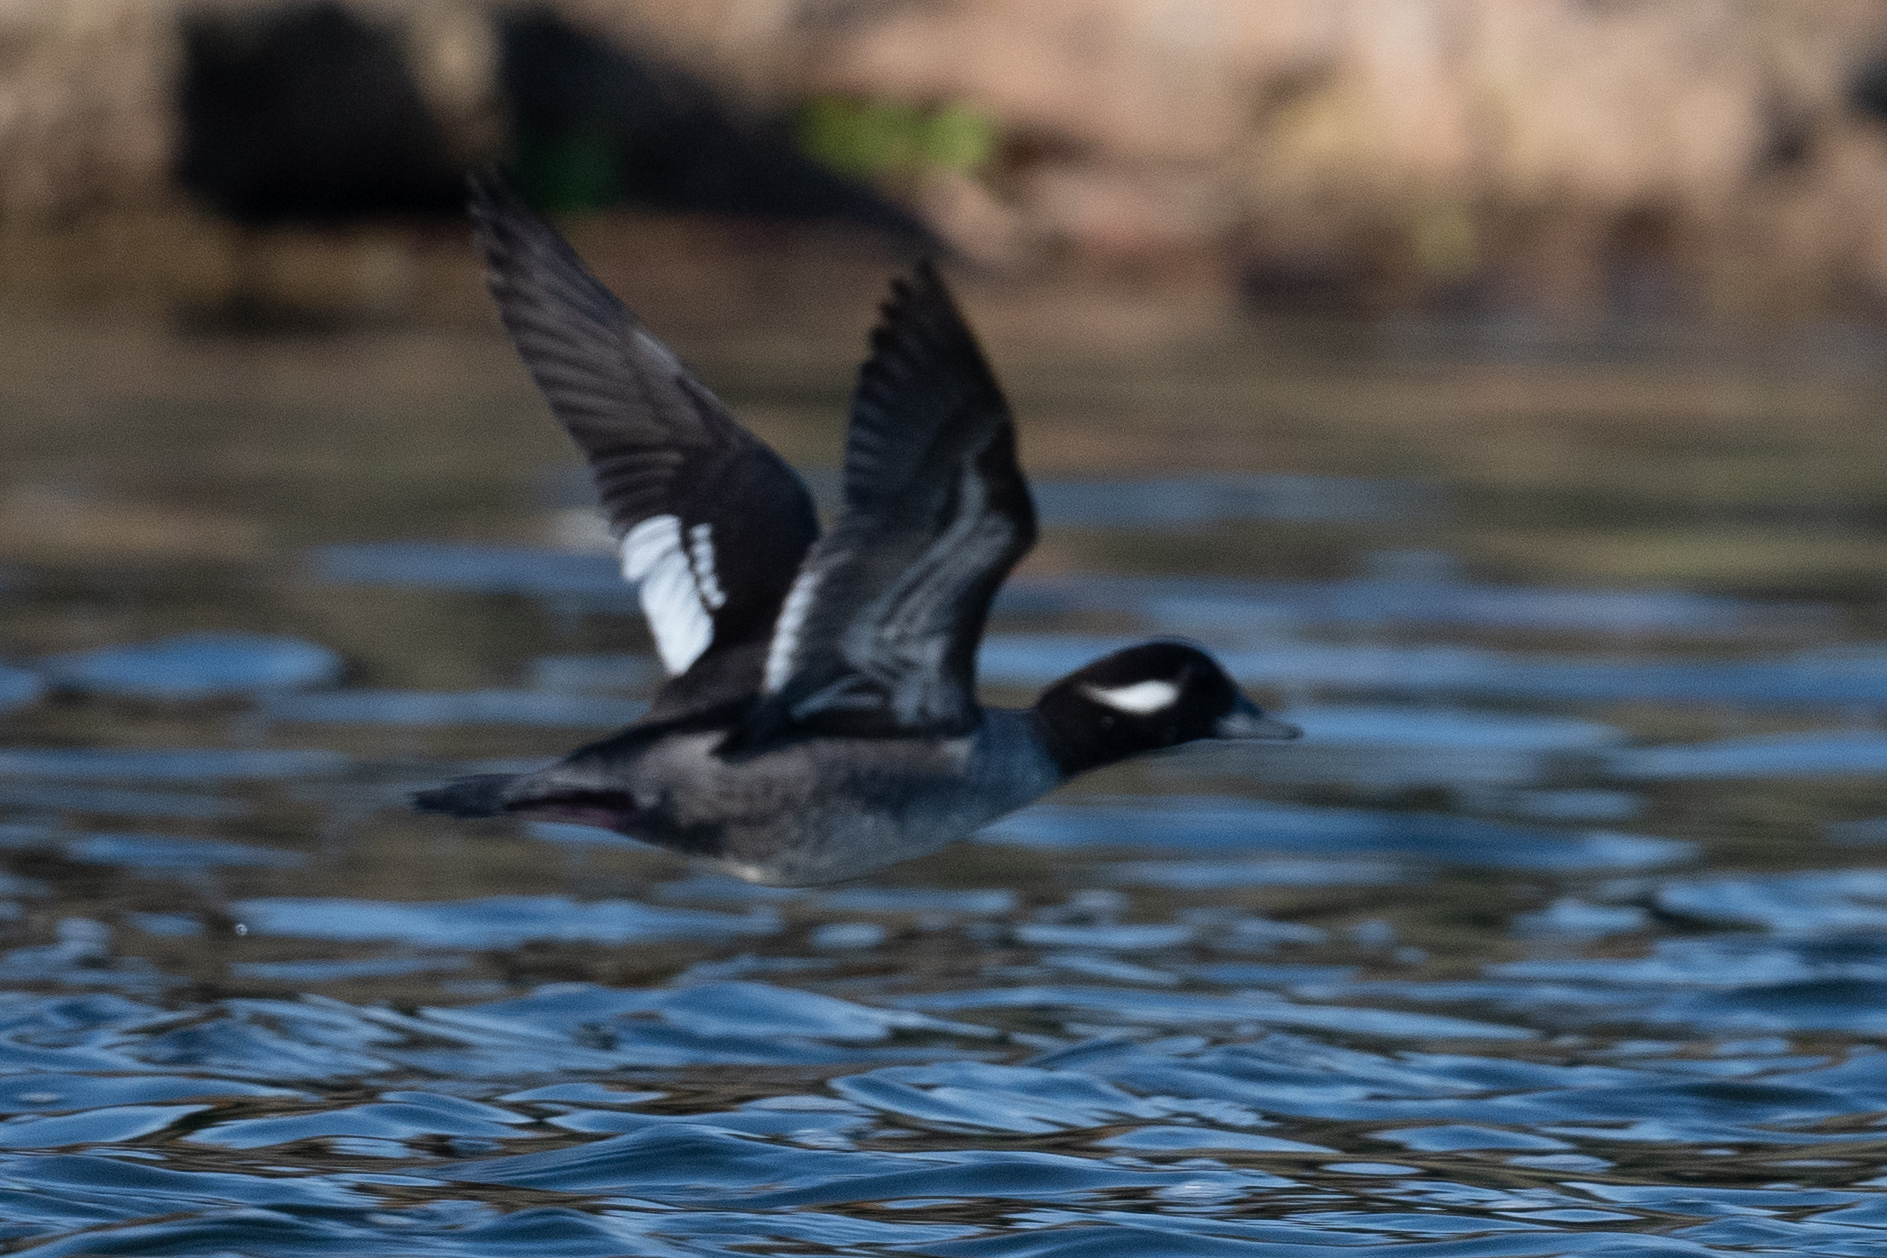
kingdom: Animalia
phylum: Chordata
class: Aves
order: Anseriformes
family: Anatidae
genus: Bucephala
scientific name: Bucephala albeola
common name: Bufflehead
